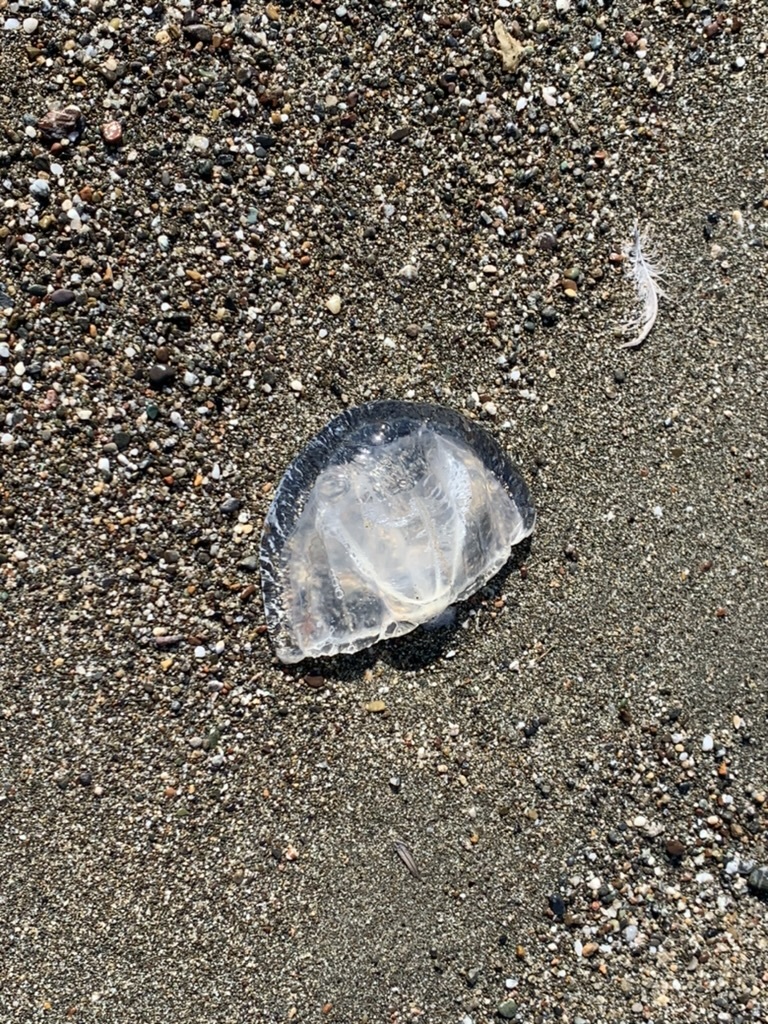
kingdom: Animalia
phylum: Cnidaria
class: Hydrozoa
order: Anthoathecata
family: Corynidae
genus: Scrippsia
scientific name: Scrippsia pacifica
